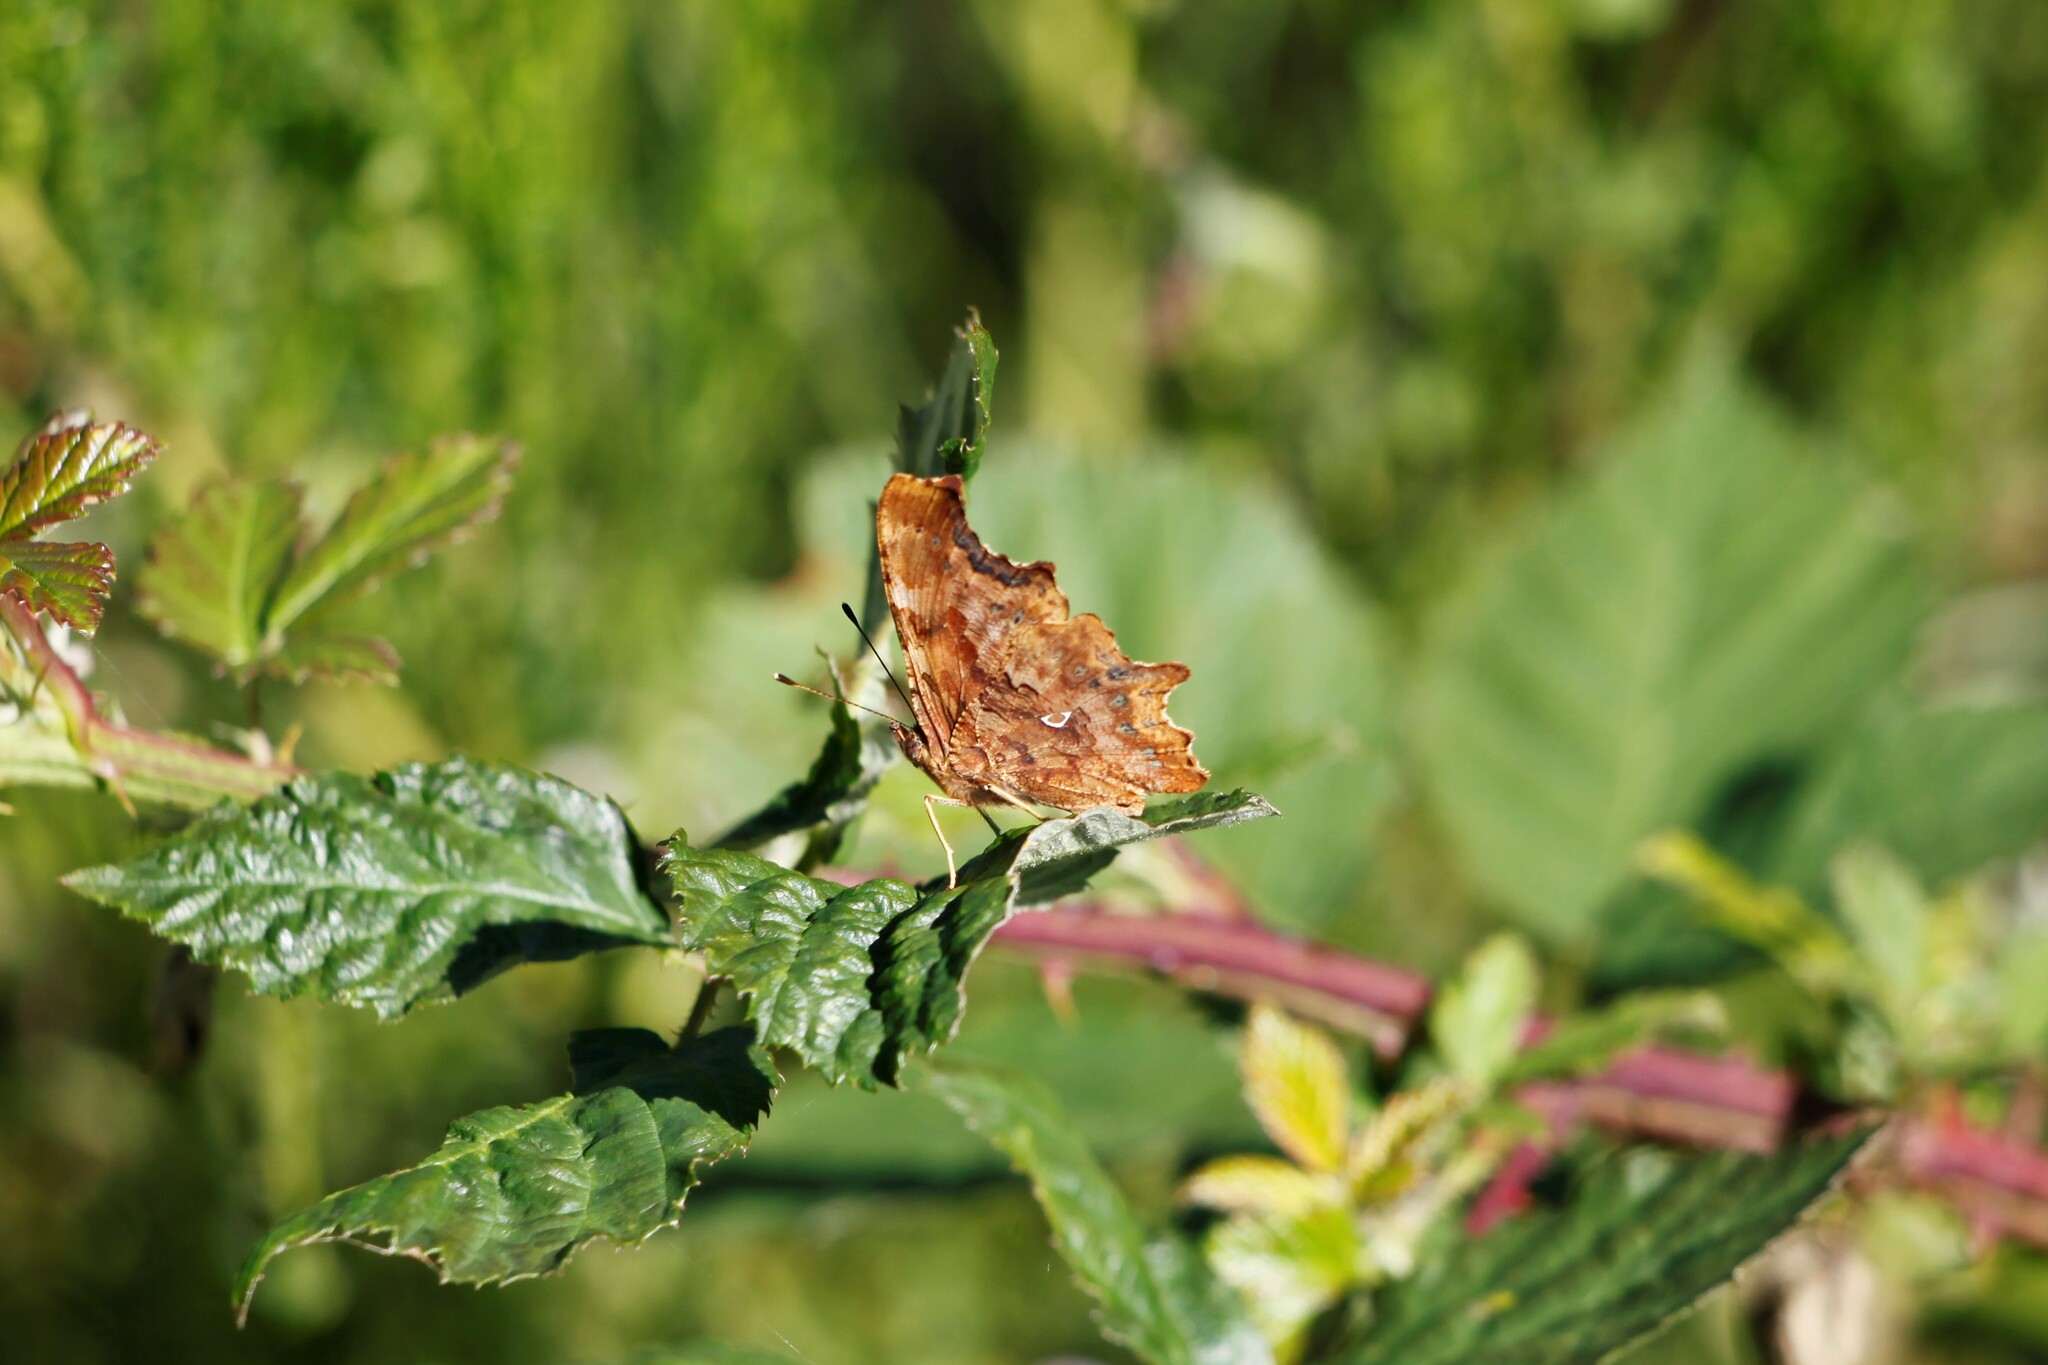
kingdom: Animalia
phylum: Arthropoda
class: Insecta
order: Lepidoptera
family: Nymphalidae
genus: Polygonia
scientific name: Polygonia c-album
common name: Comma
